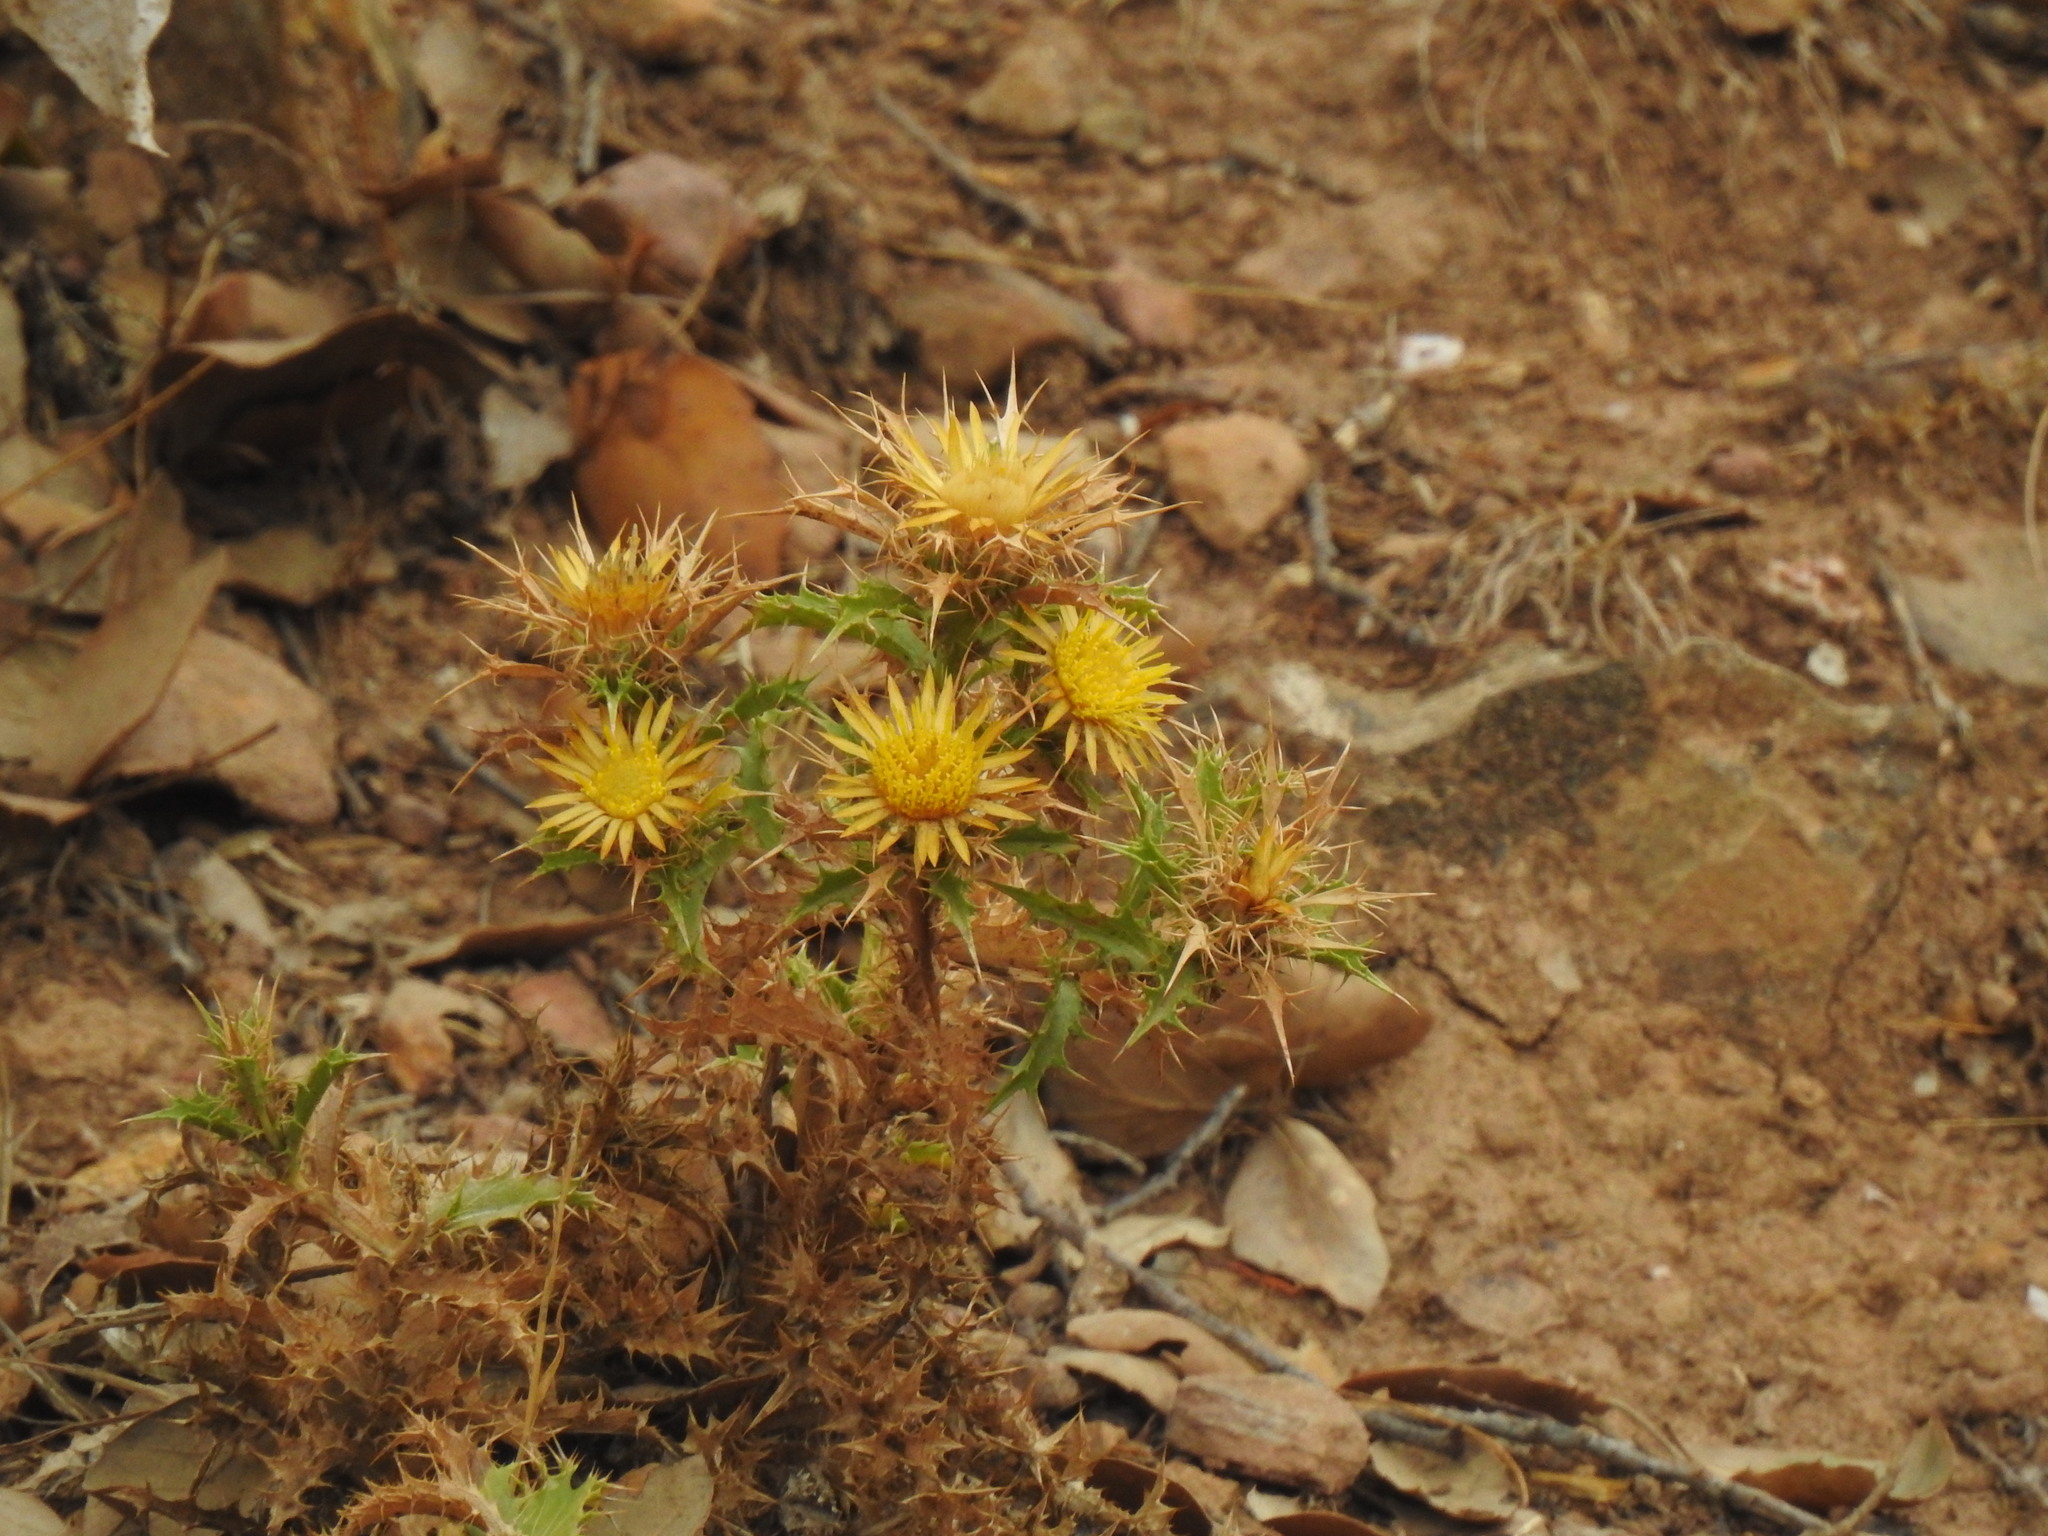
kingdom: Plantae
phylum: Tracheophyta
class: Magnoliopsida
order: Asterales
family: Asteraceae
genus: Carlina
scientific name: Carlina hispanica
